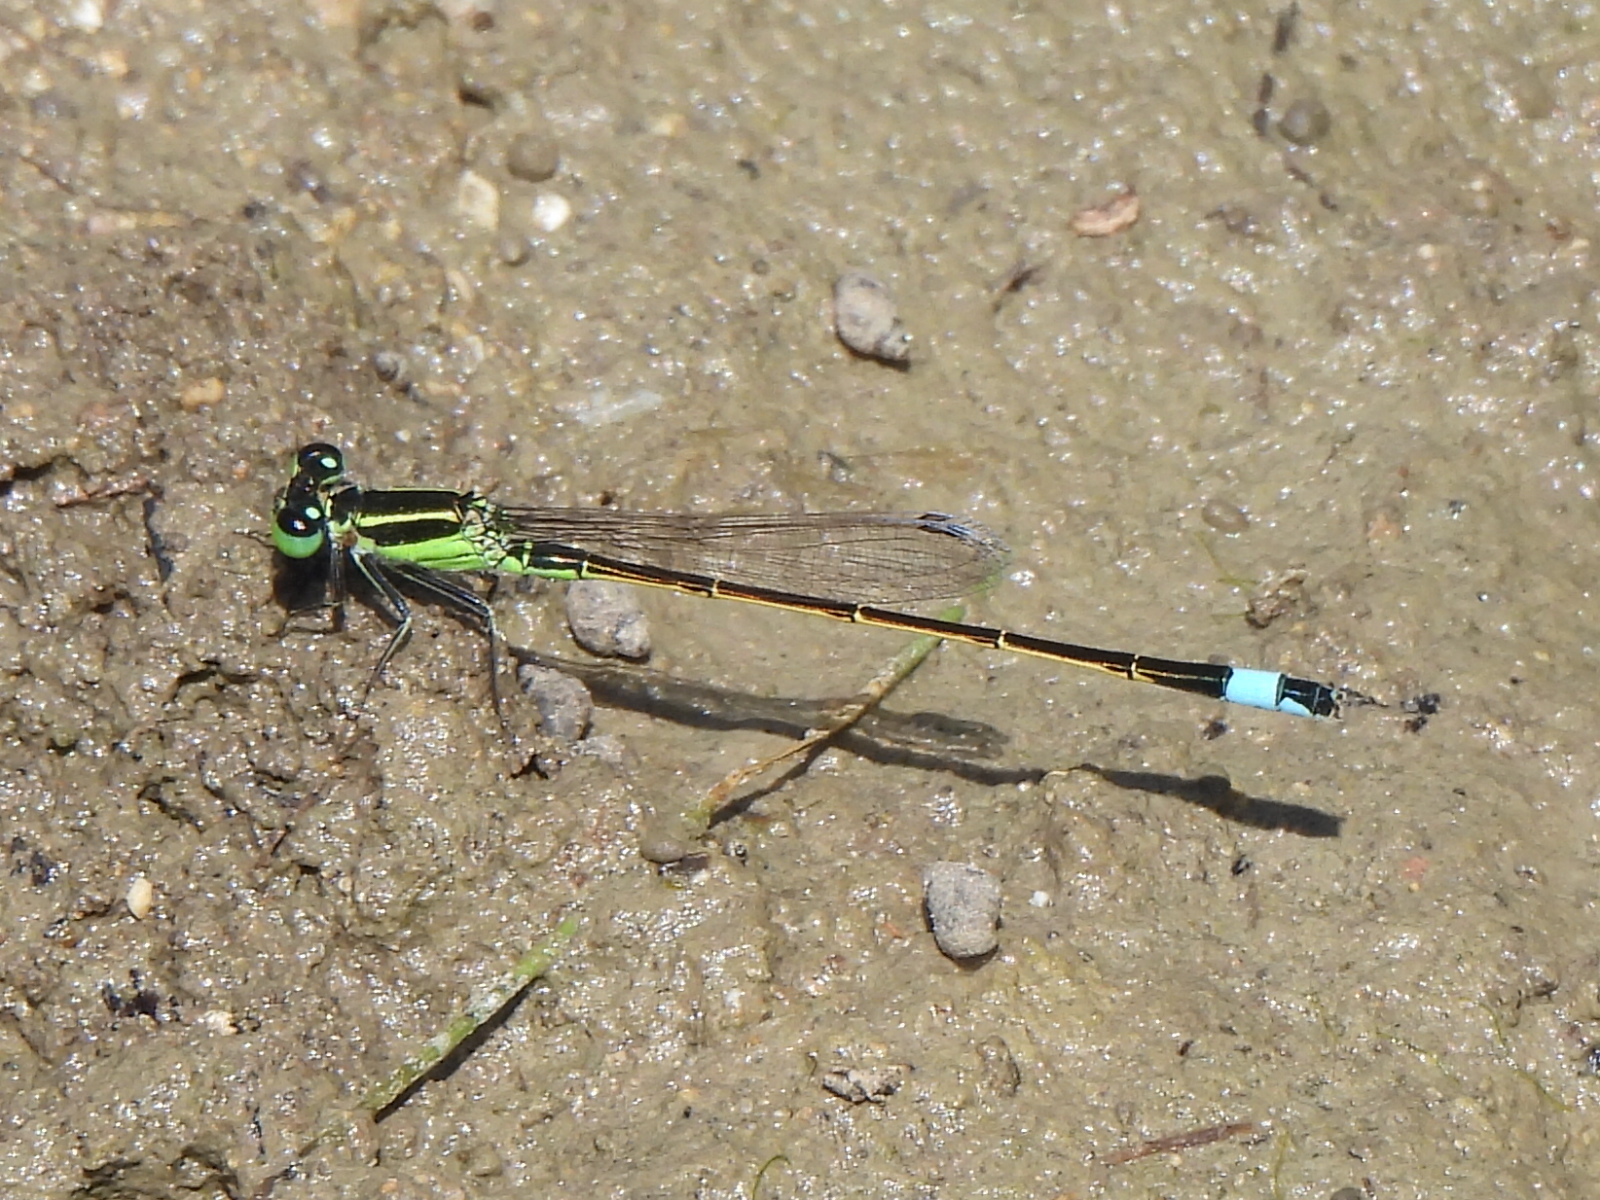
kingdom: Animalia
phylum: Arthropoda
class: Insecta
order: Odonata
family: Coenagrionidae
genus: Ischnura
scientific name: Ischnura ramburii
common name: Rambur's forktail
